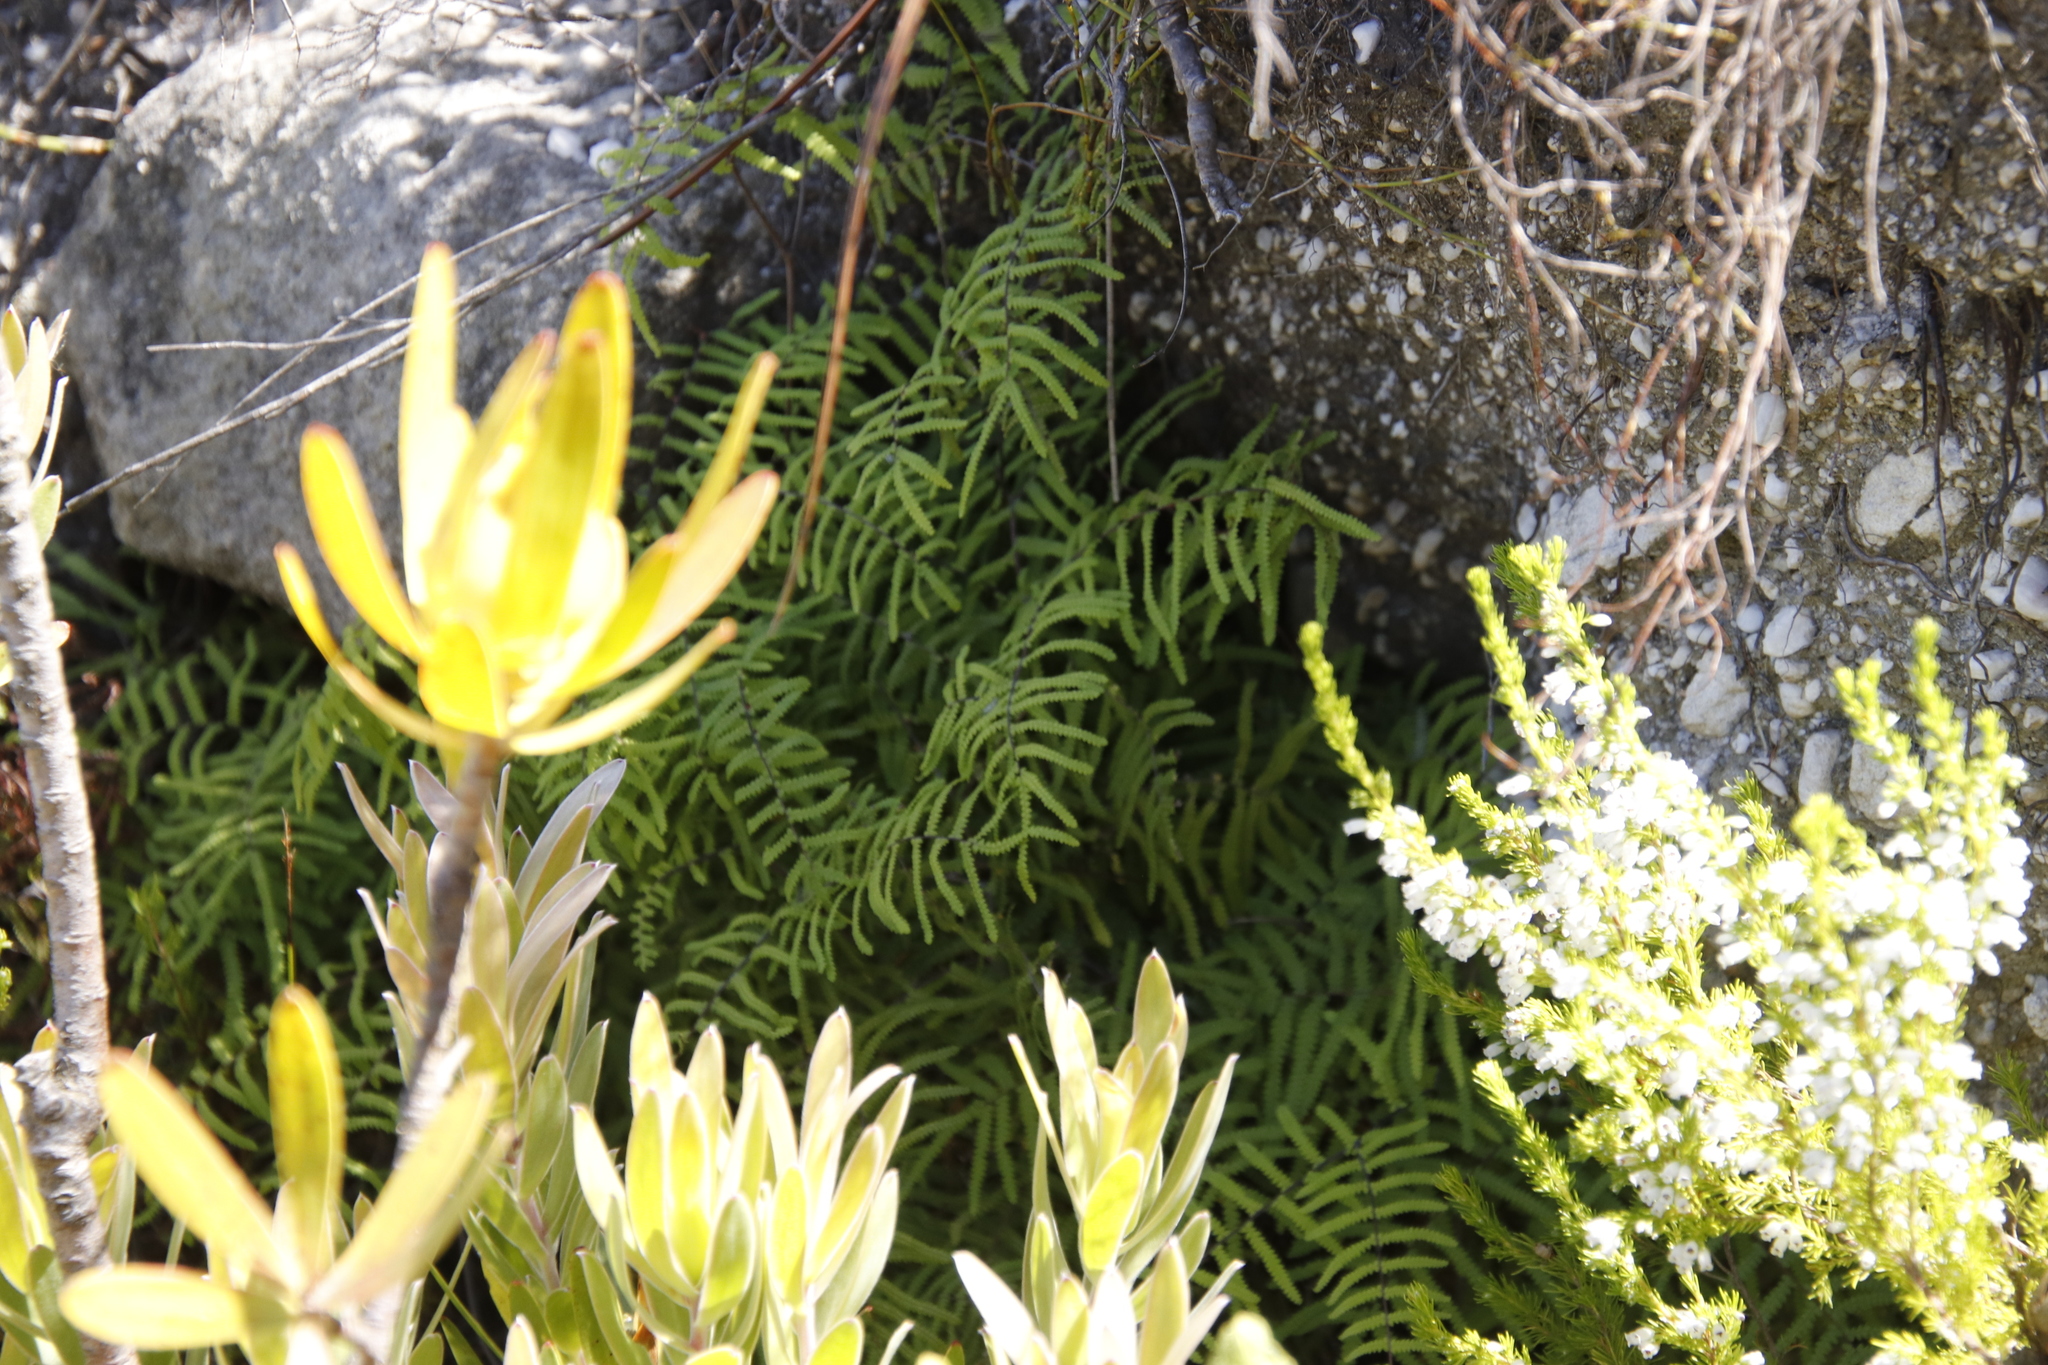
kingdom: Plantae
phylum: Tracheophyta
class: Polypodiopsida
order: Gleicheniales
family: Gleicheniaceae
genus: Gleichenia
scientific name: Gleichenia polypodioides
